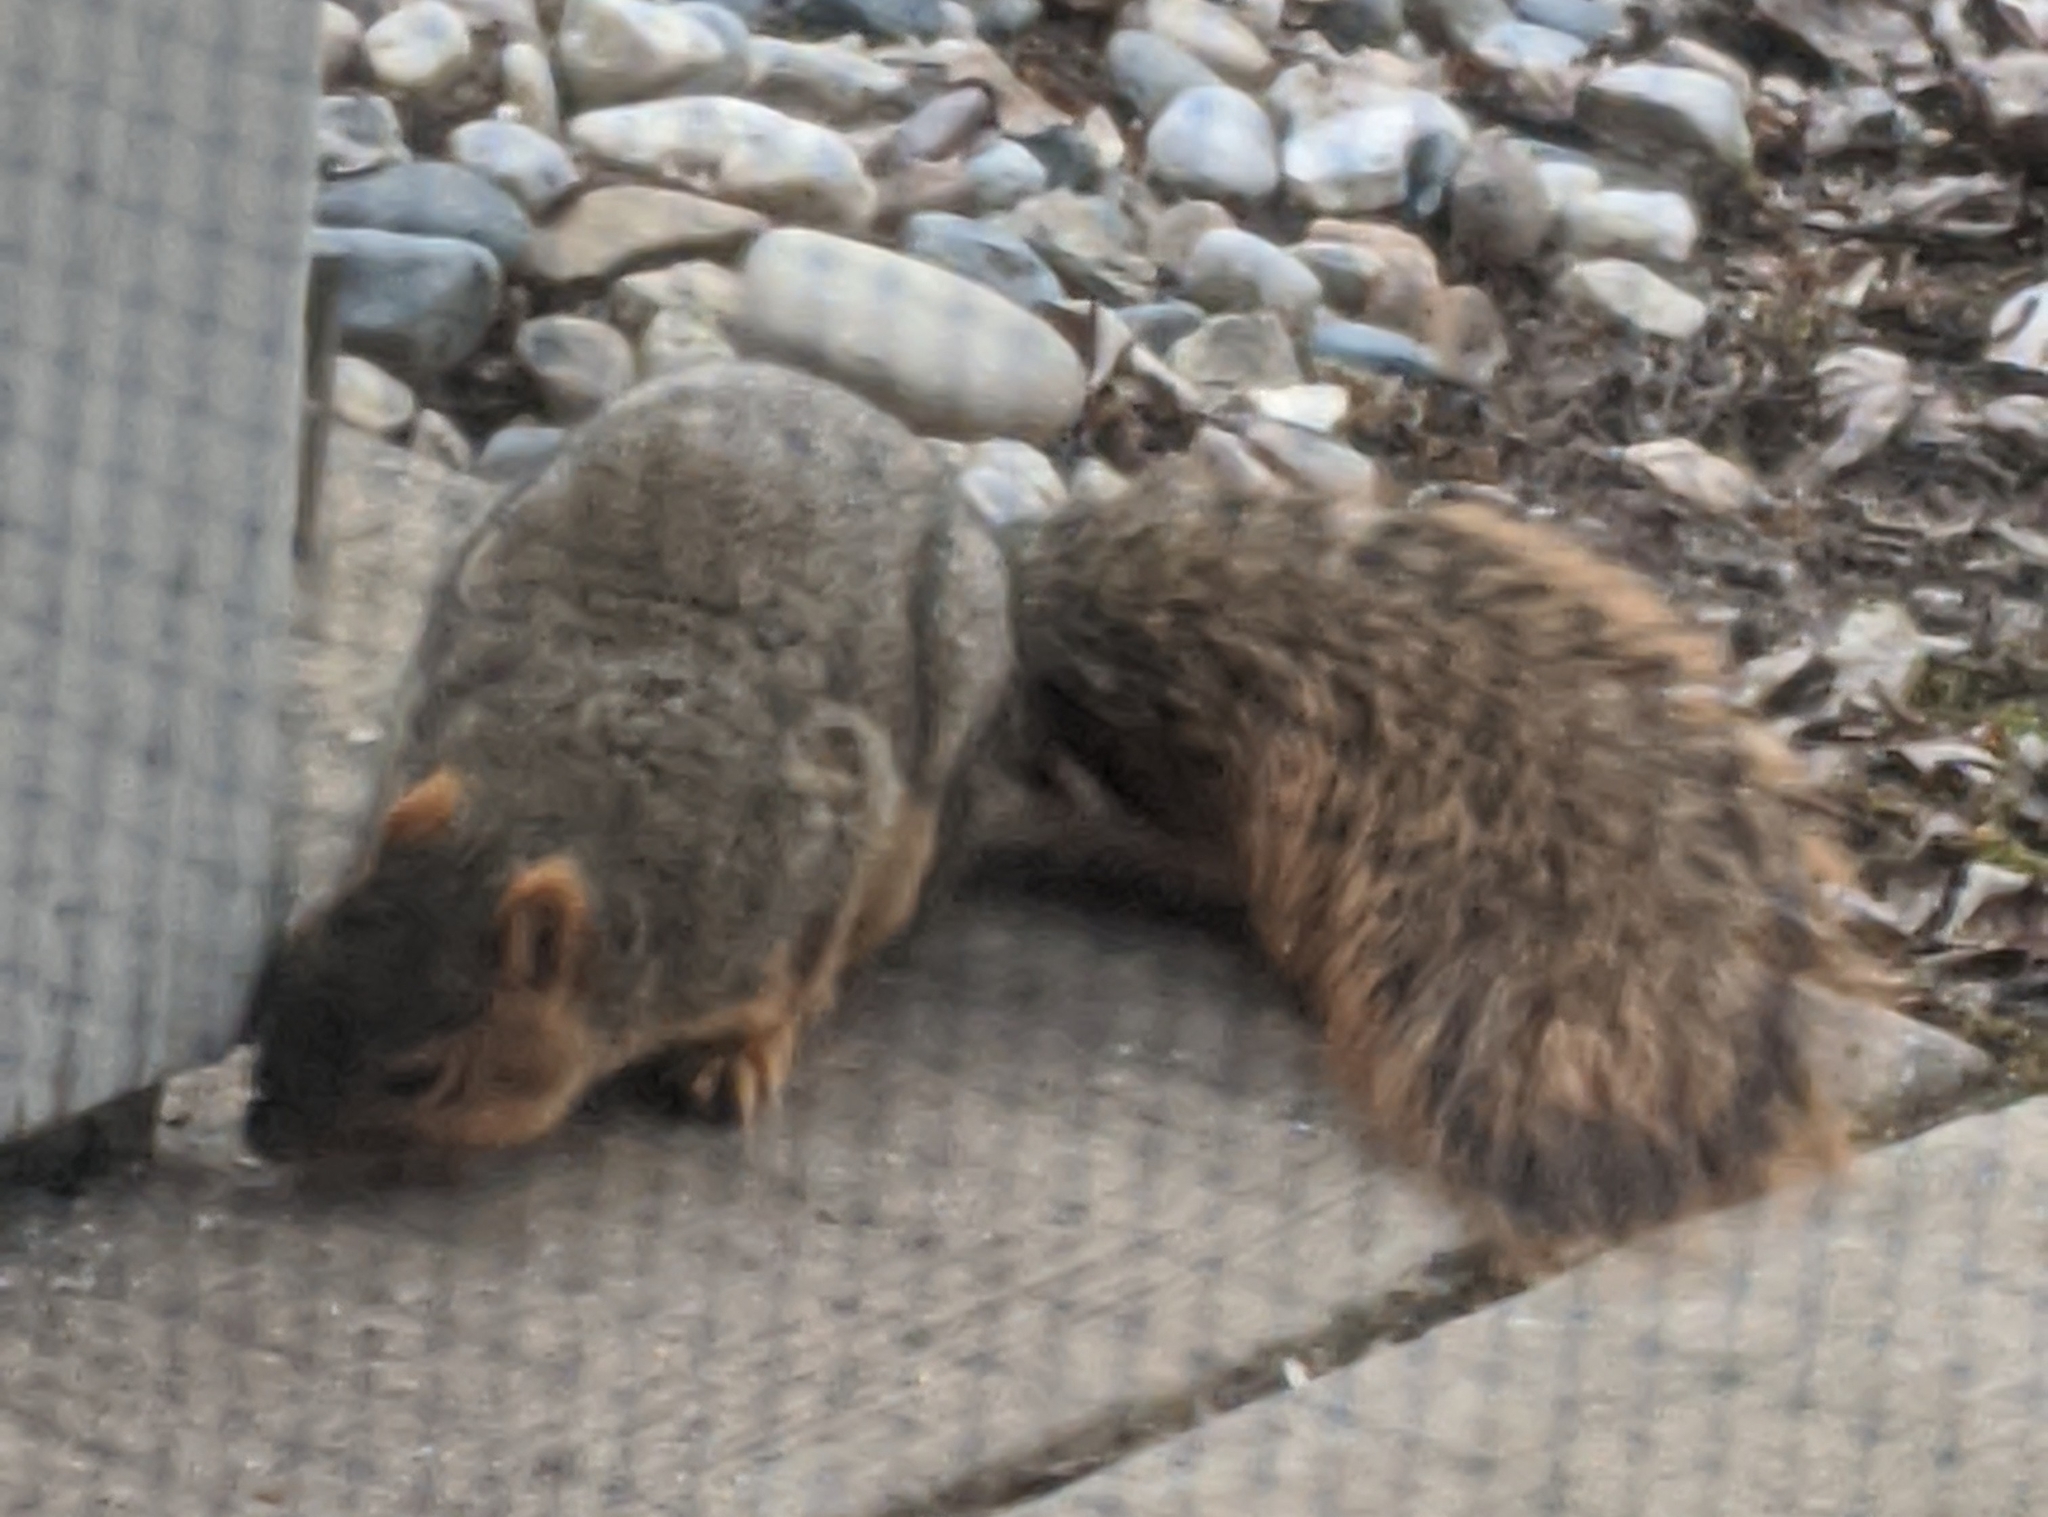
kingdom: Animalia
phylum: Chordata
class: Mammalia
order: Rodentia
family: Sciuridae
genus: Sciurus
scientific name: Sciurus niger
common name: Fox squirrel
